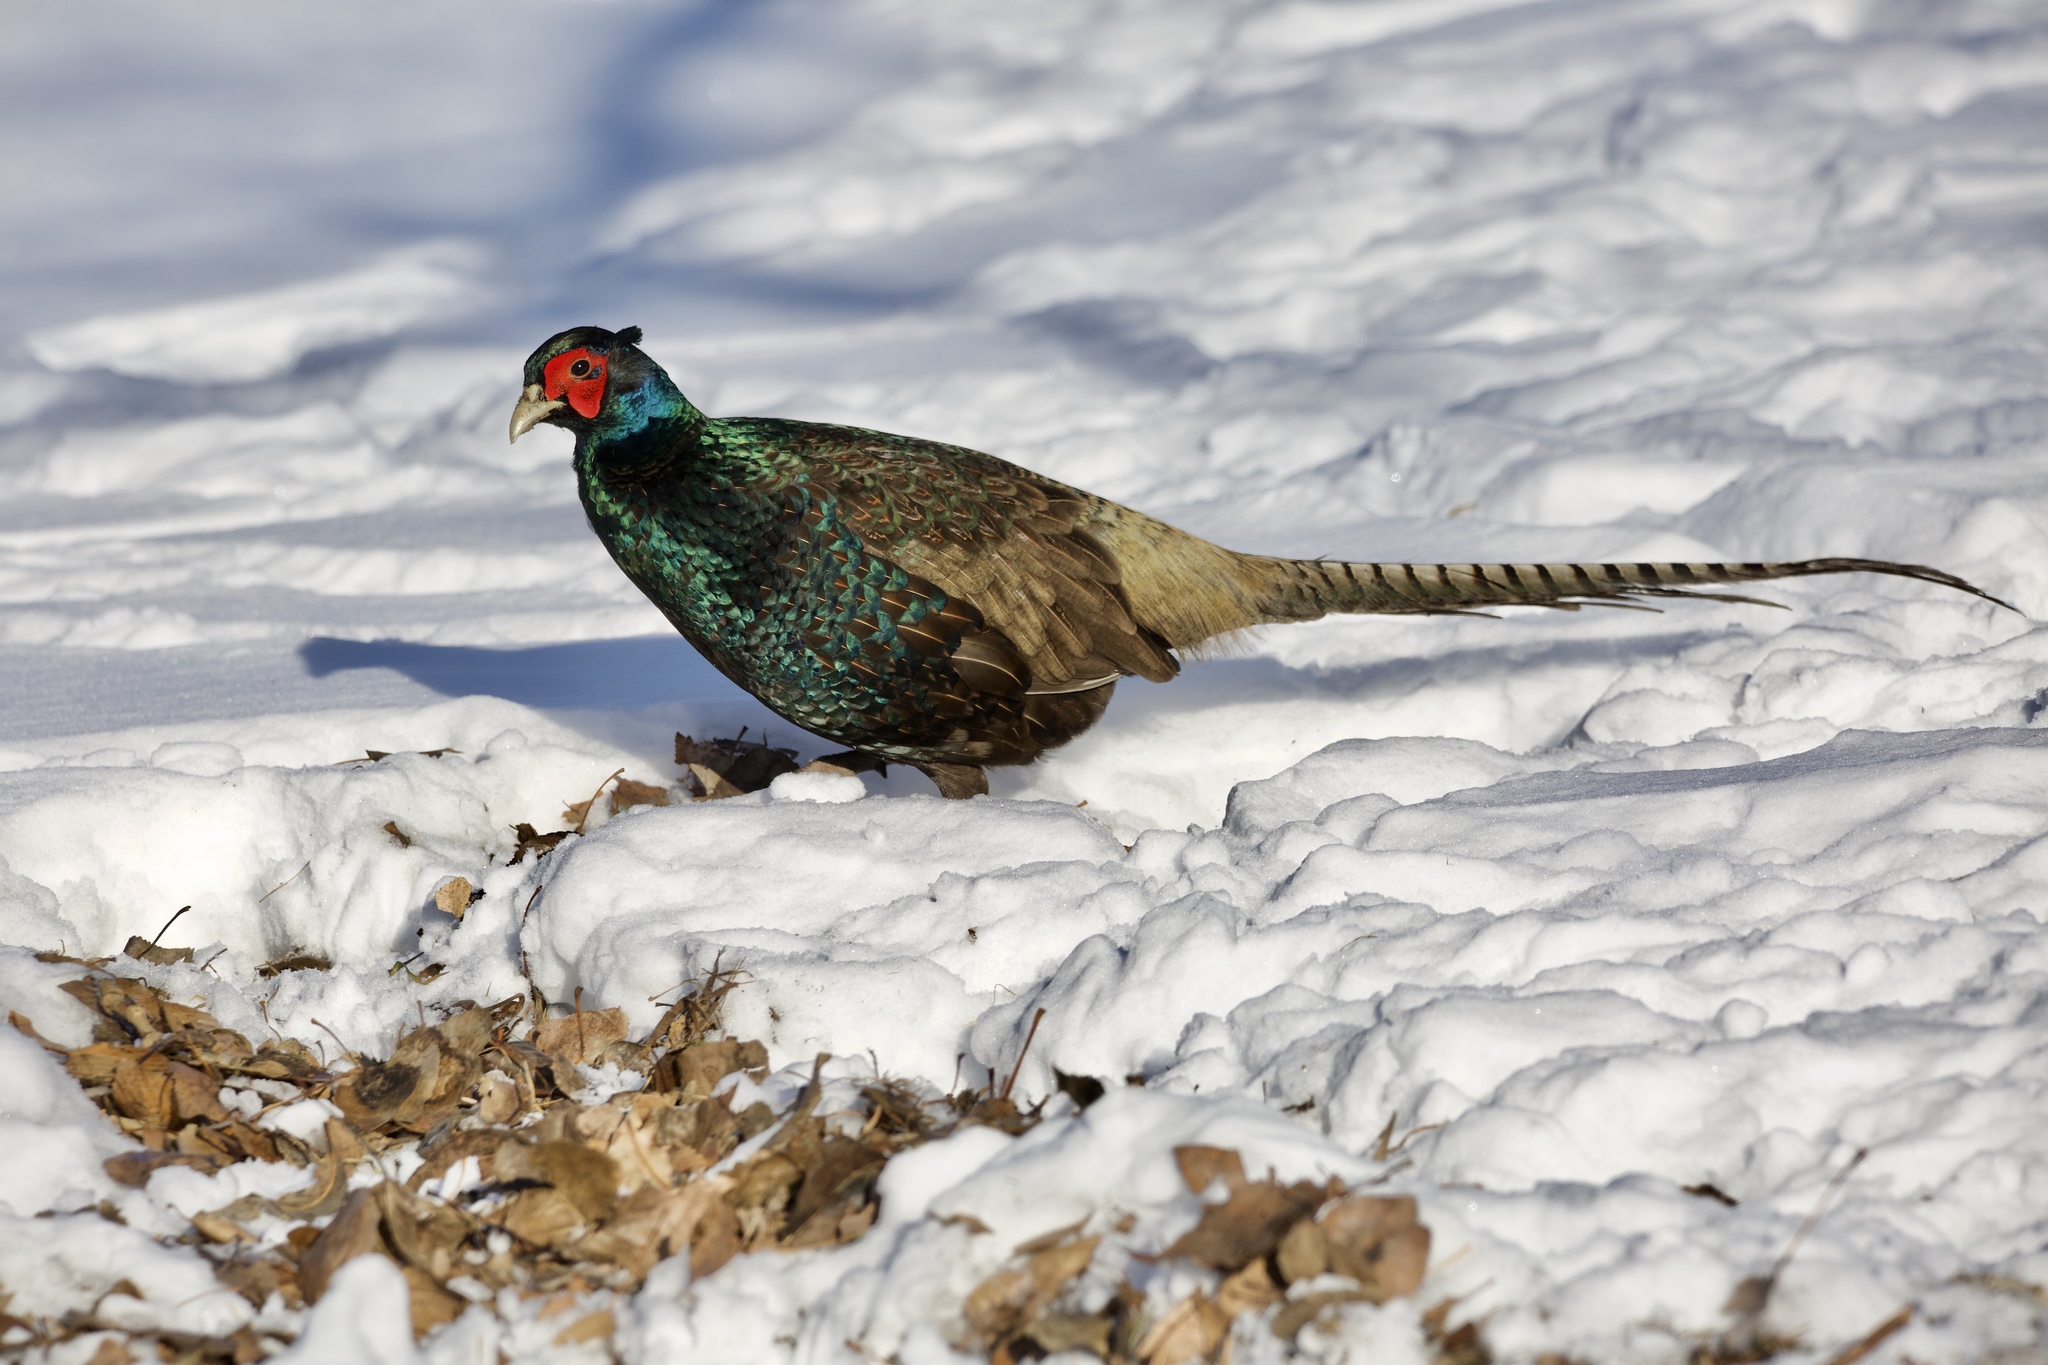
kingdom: Animalia
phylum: Chordata
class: Aves
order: Galliformes
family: Phasianidae
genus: Phasianus
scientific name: Phasianus colchicus
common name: Common pheasant
